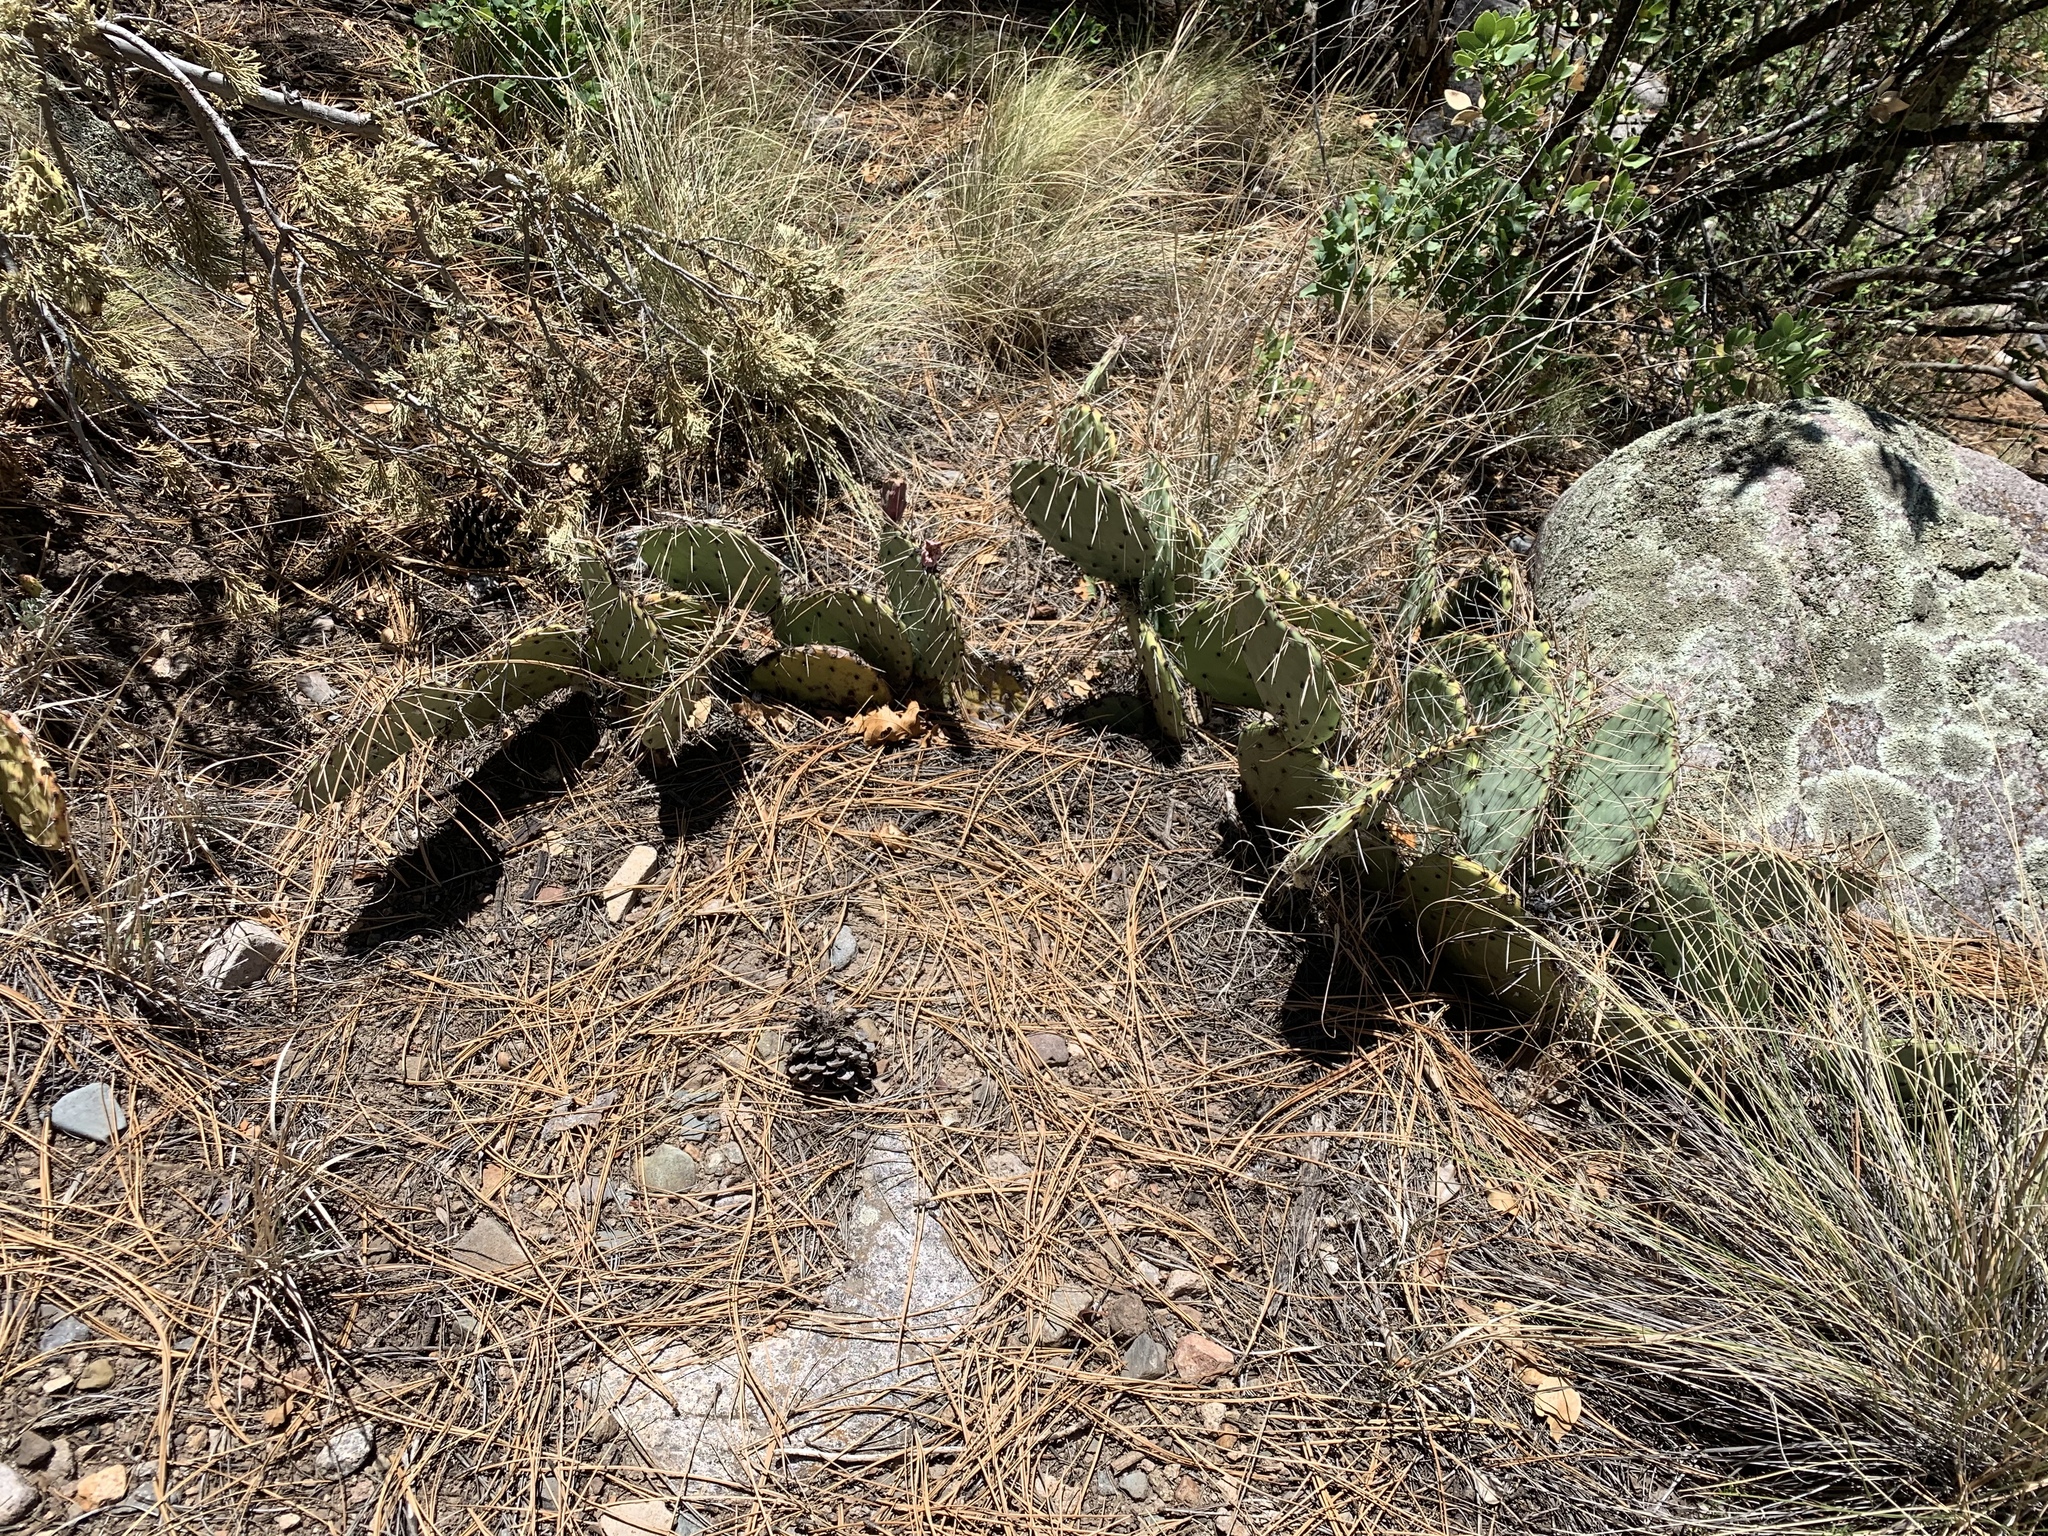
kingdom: Plantae
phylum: Tracheophyta
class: Magnoliopsida
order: Caryophyllales
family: Cactaceae
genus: Opuntia
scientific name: Opuntia engelmannii
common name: Cactus-apple
